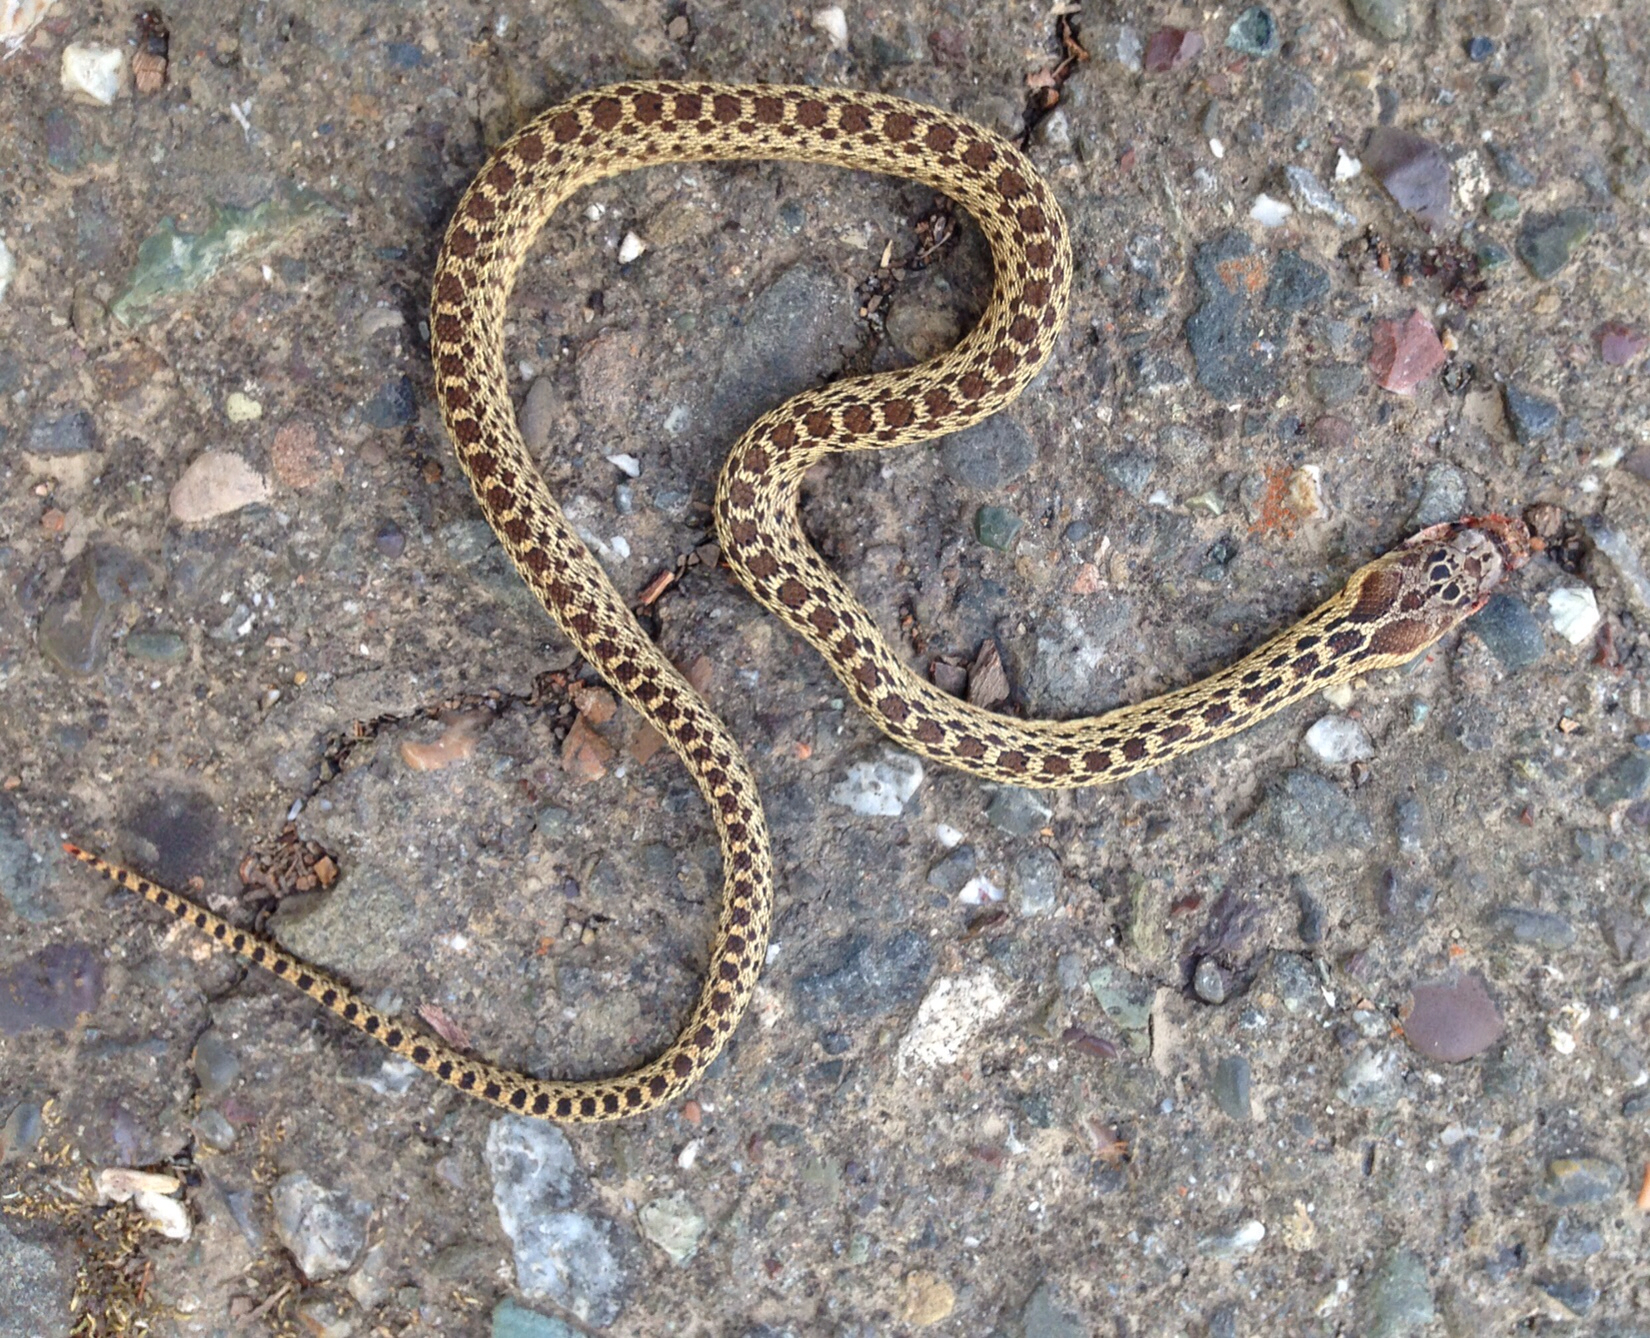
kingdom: Animalia
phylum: Chordata
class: Squamata
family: Colubridae
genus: Pituophis
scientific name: Pituophis catenifer
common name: Gopher snake
